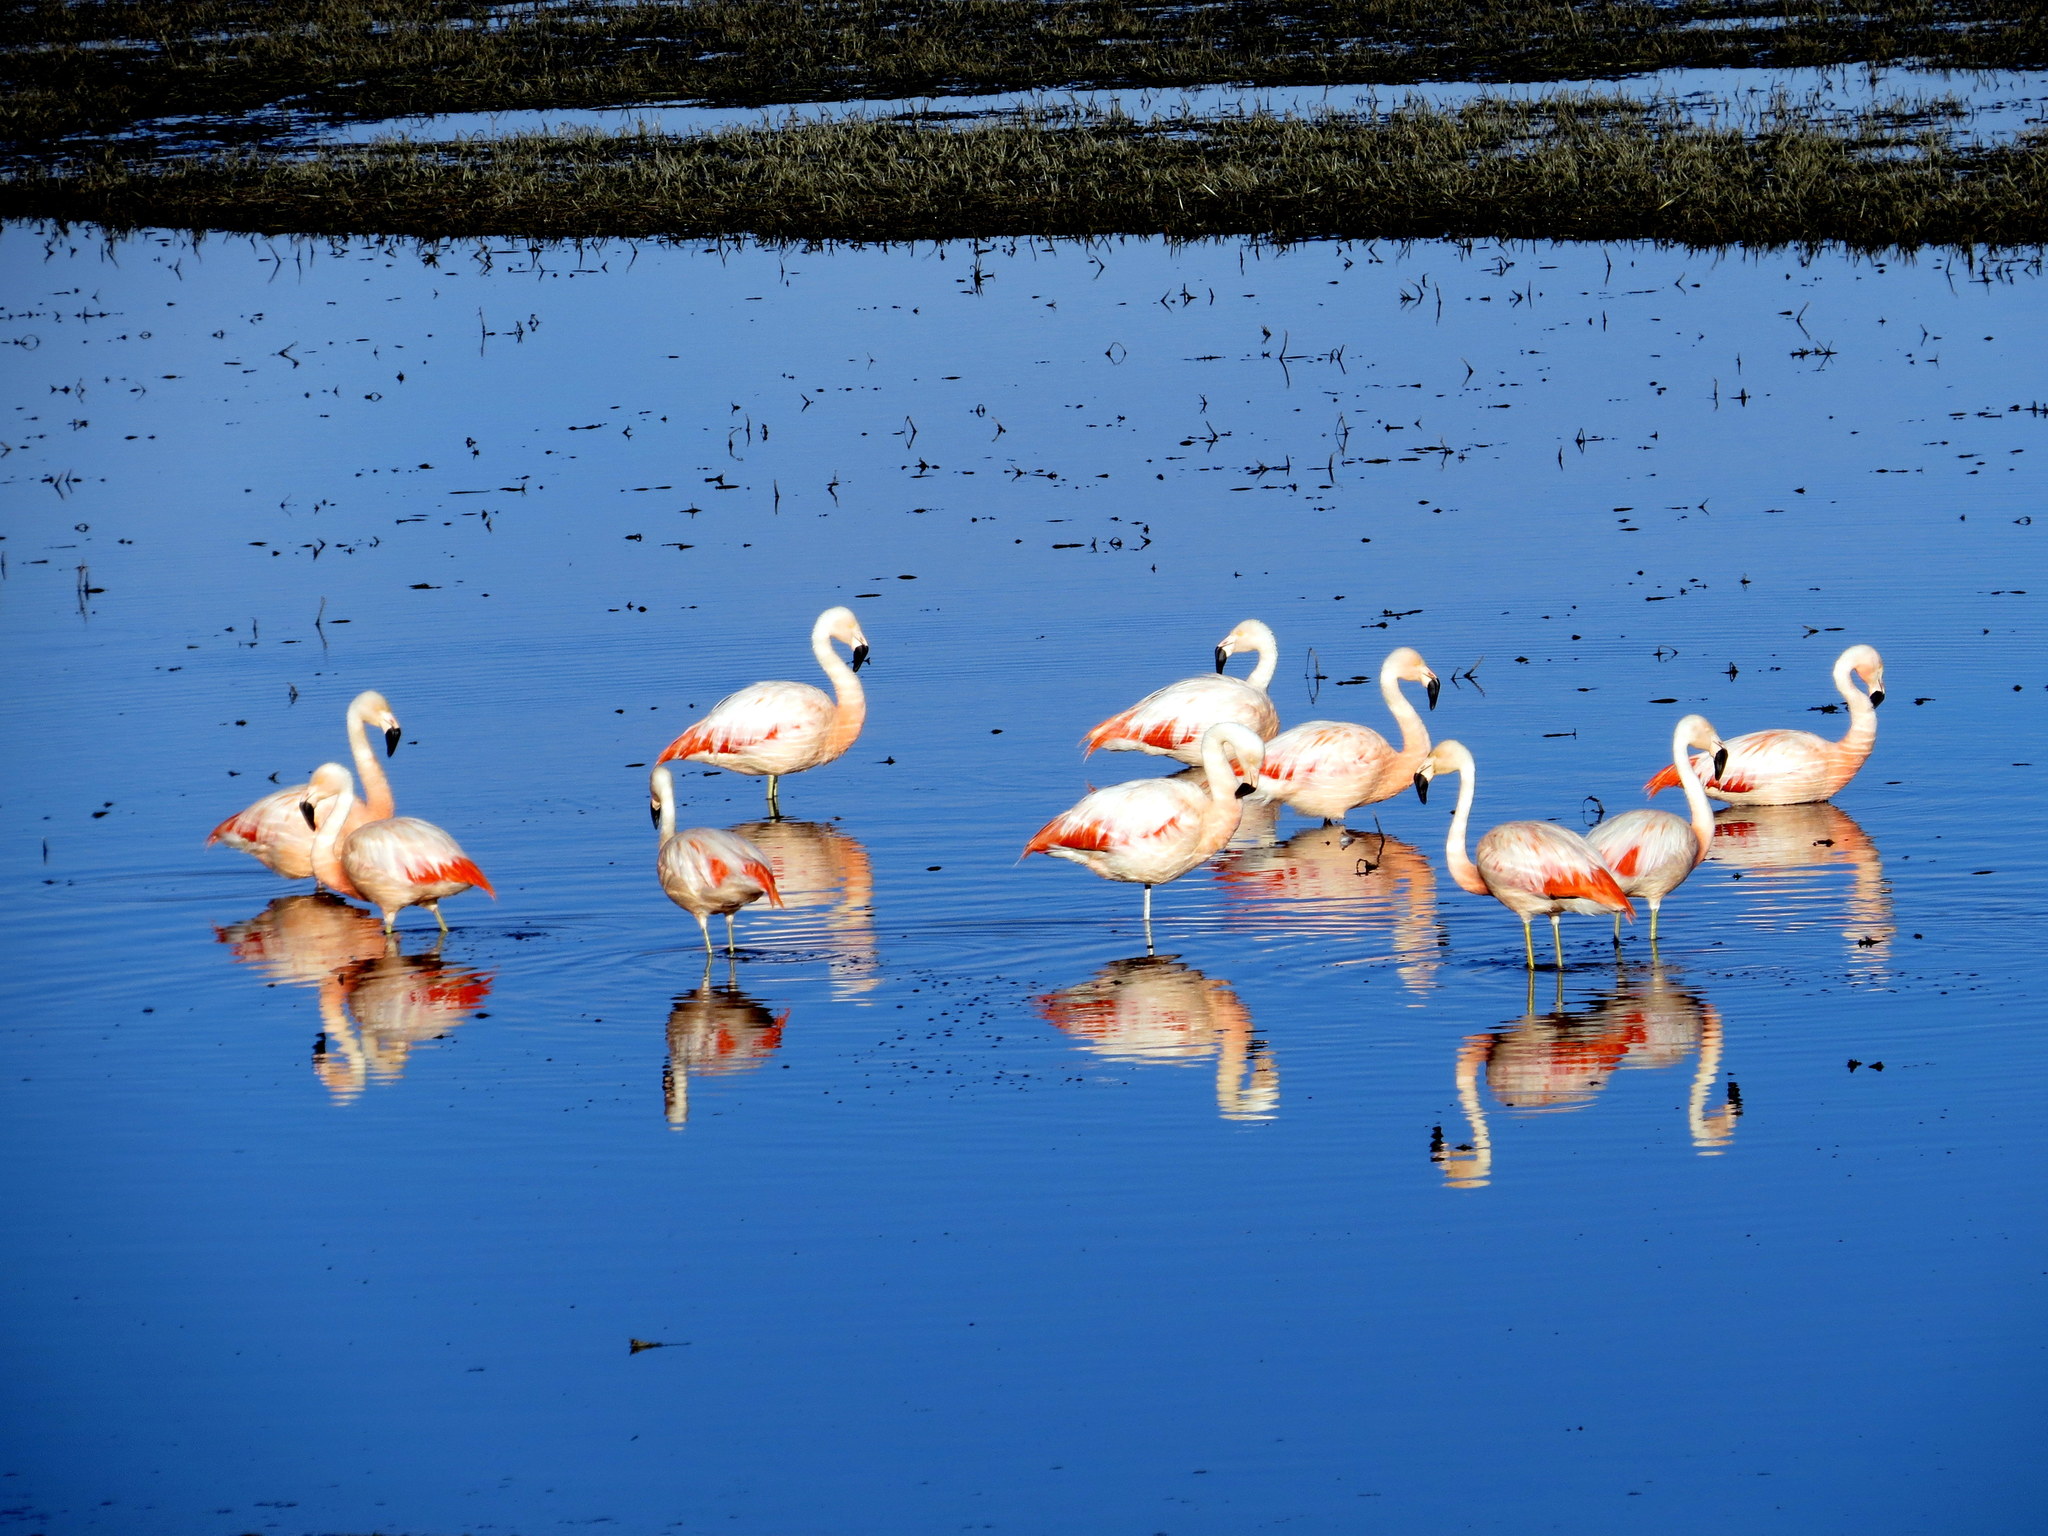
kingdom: Animalia
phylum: Chordata
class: Aves
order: Phoenicopteriformes
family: Phoenicopteridae
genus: Phoenicopterus
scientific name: Phoenicopterus chilensis
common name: Chilean flamingo
